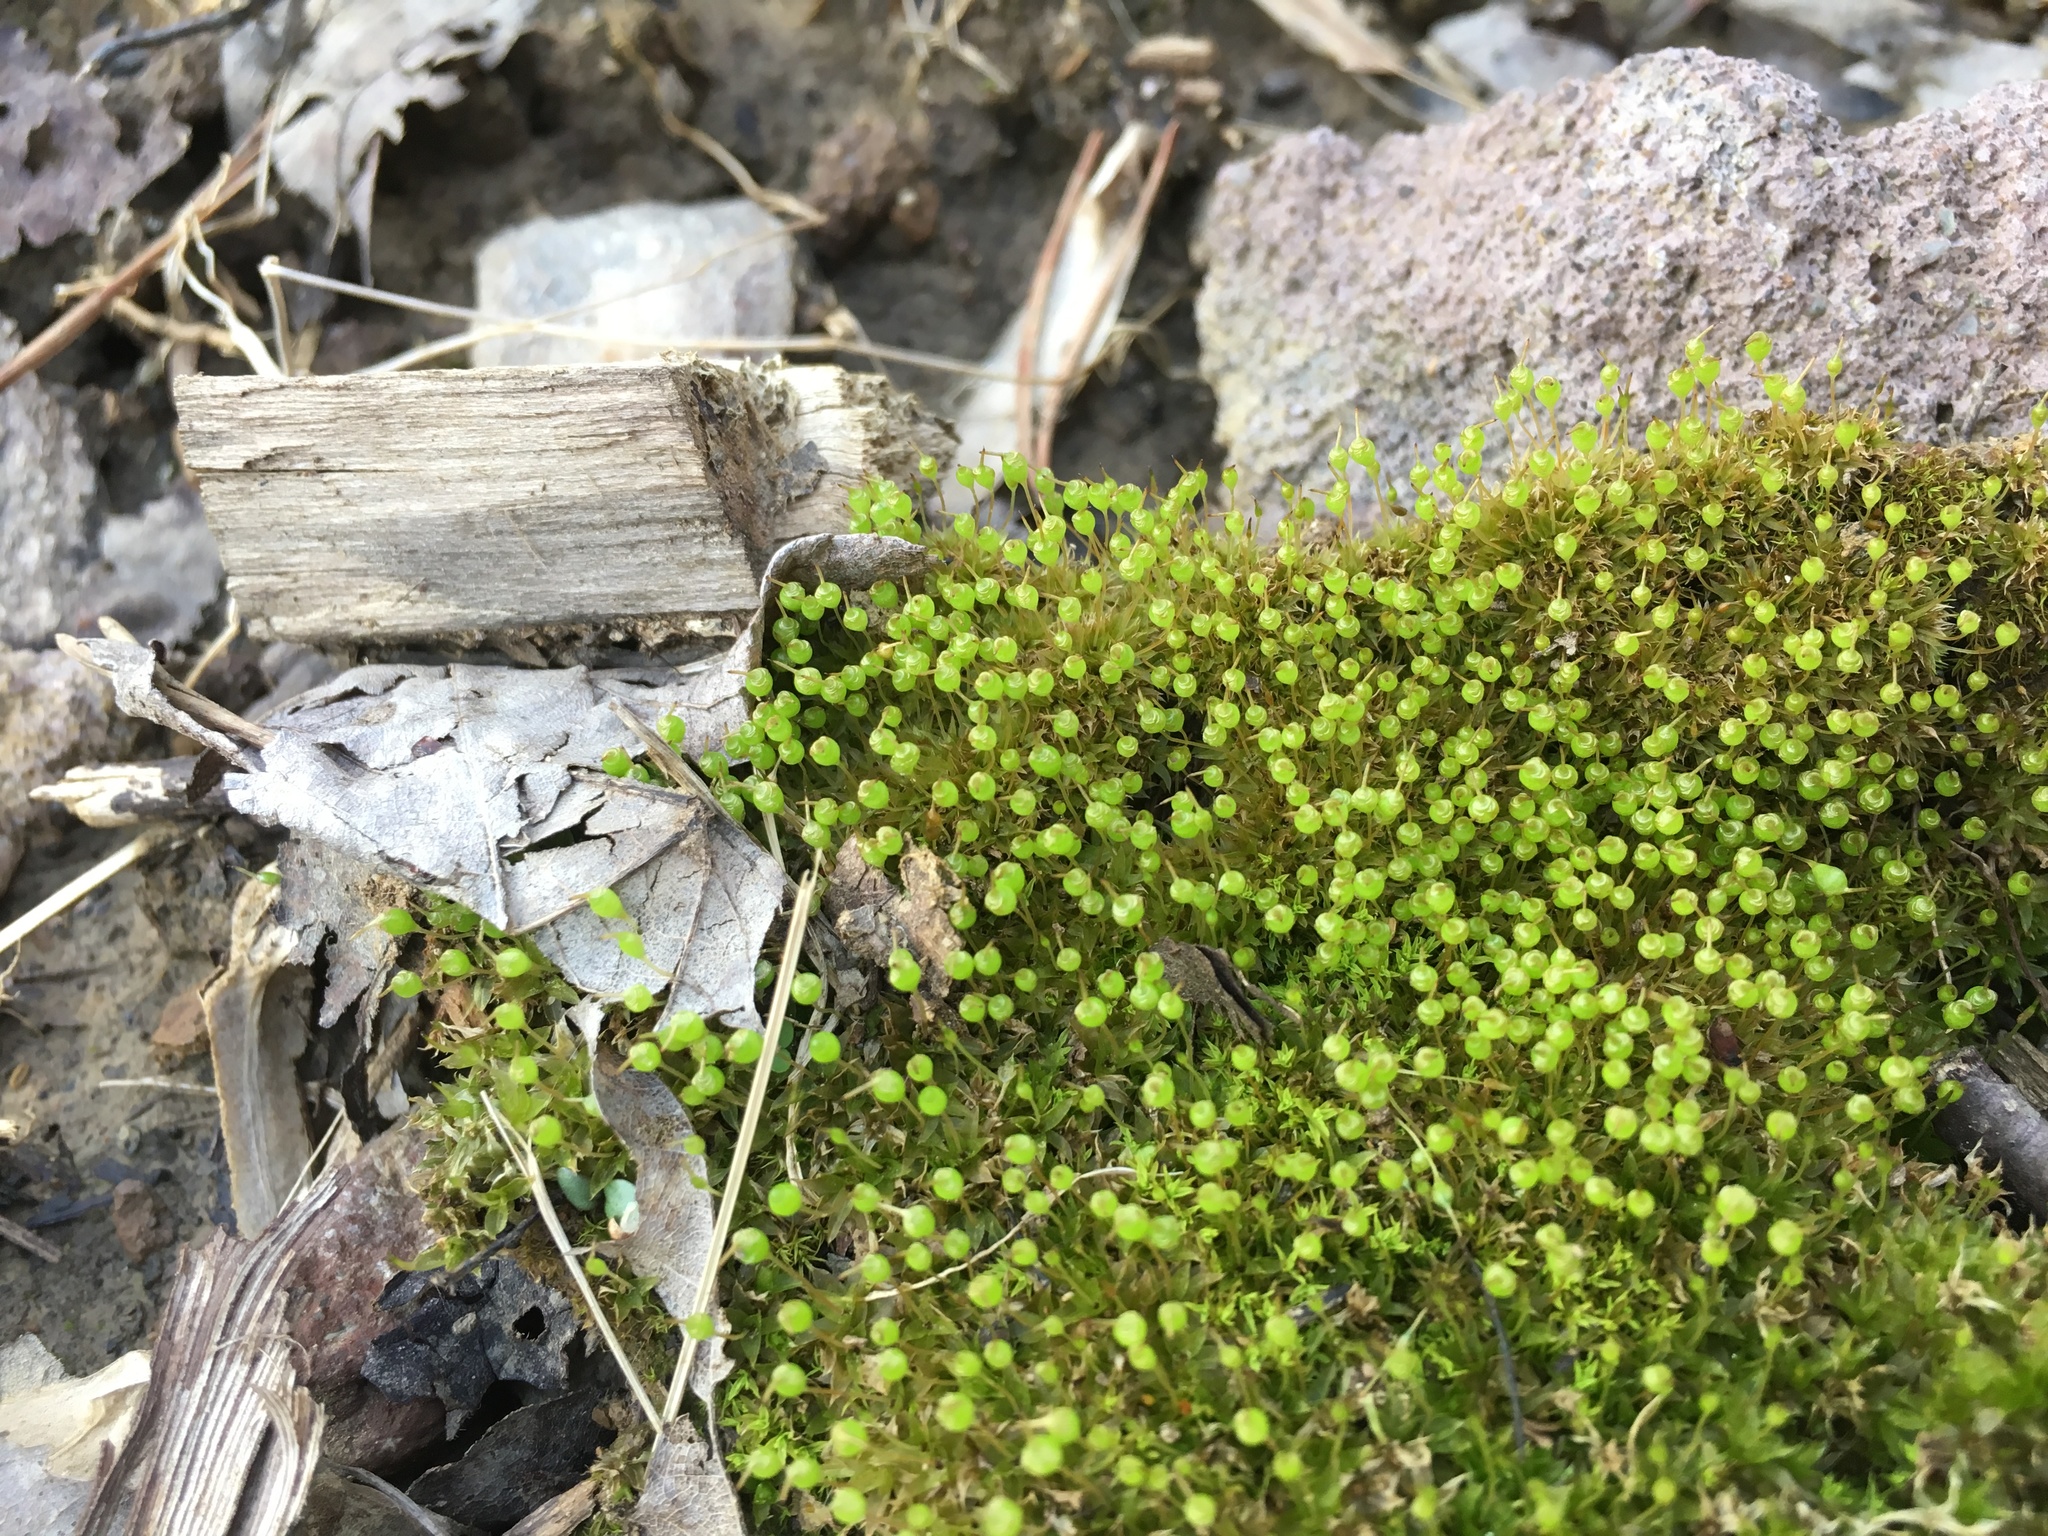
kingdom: Plantae
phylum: Bryophyta
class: Bryopsida
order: Funariales
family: Funariaceae
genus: Physcomitrium
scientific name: Physcomitrium pyriforme
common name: Common bladder-moss
